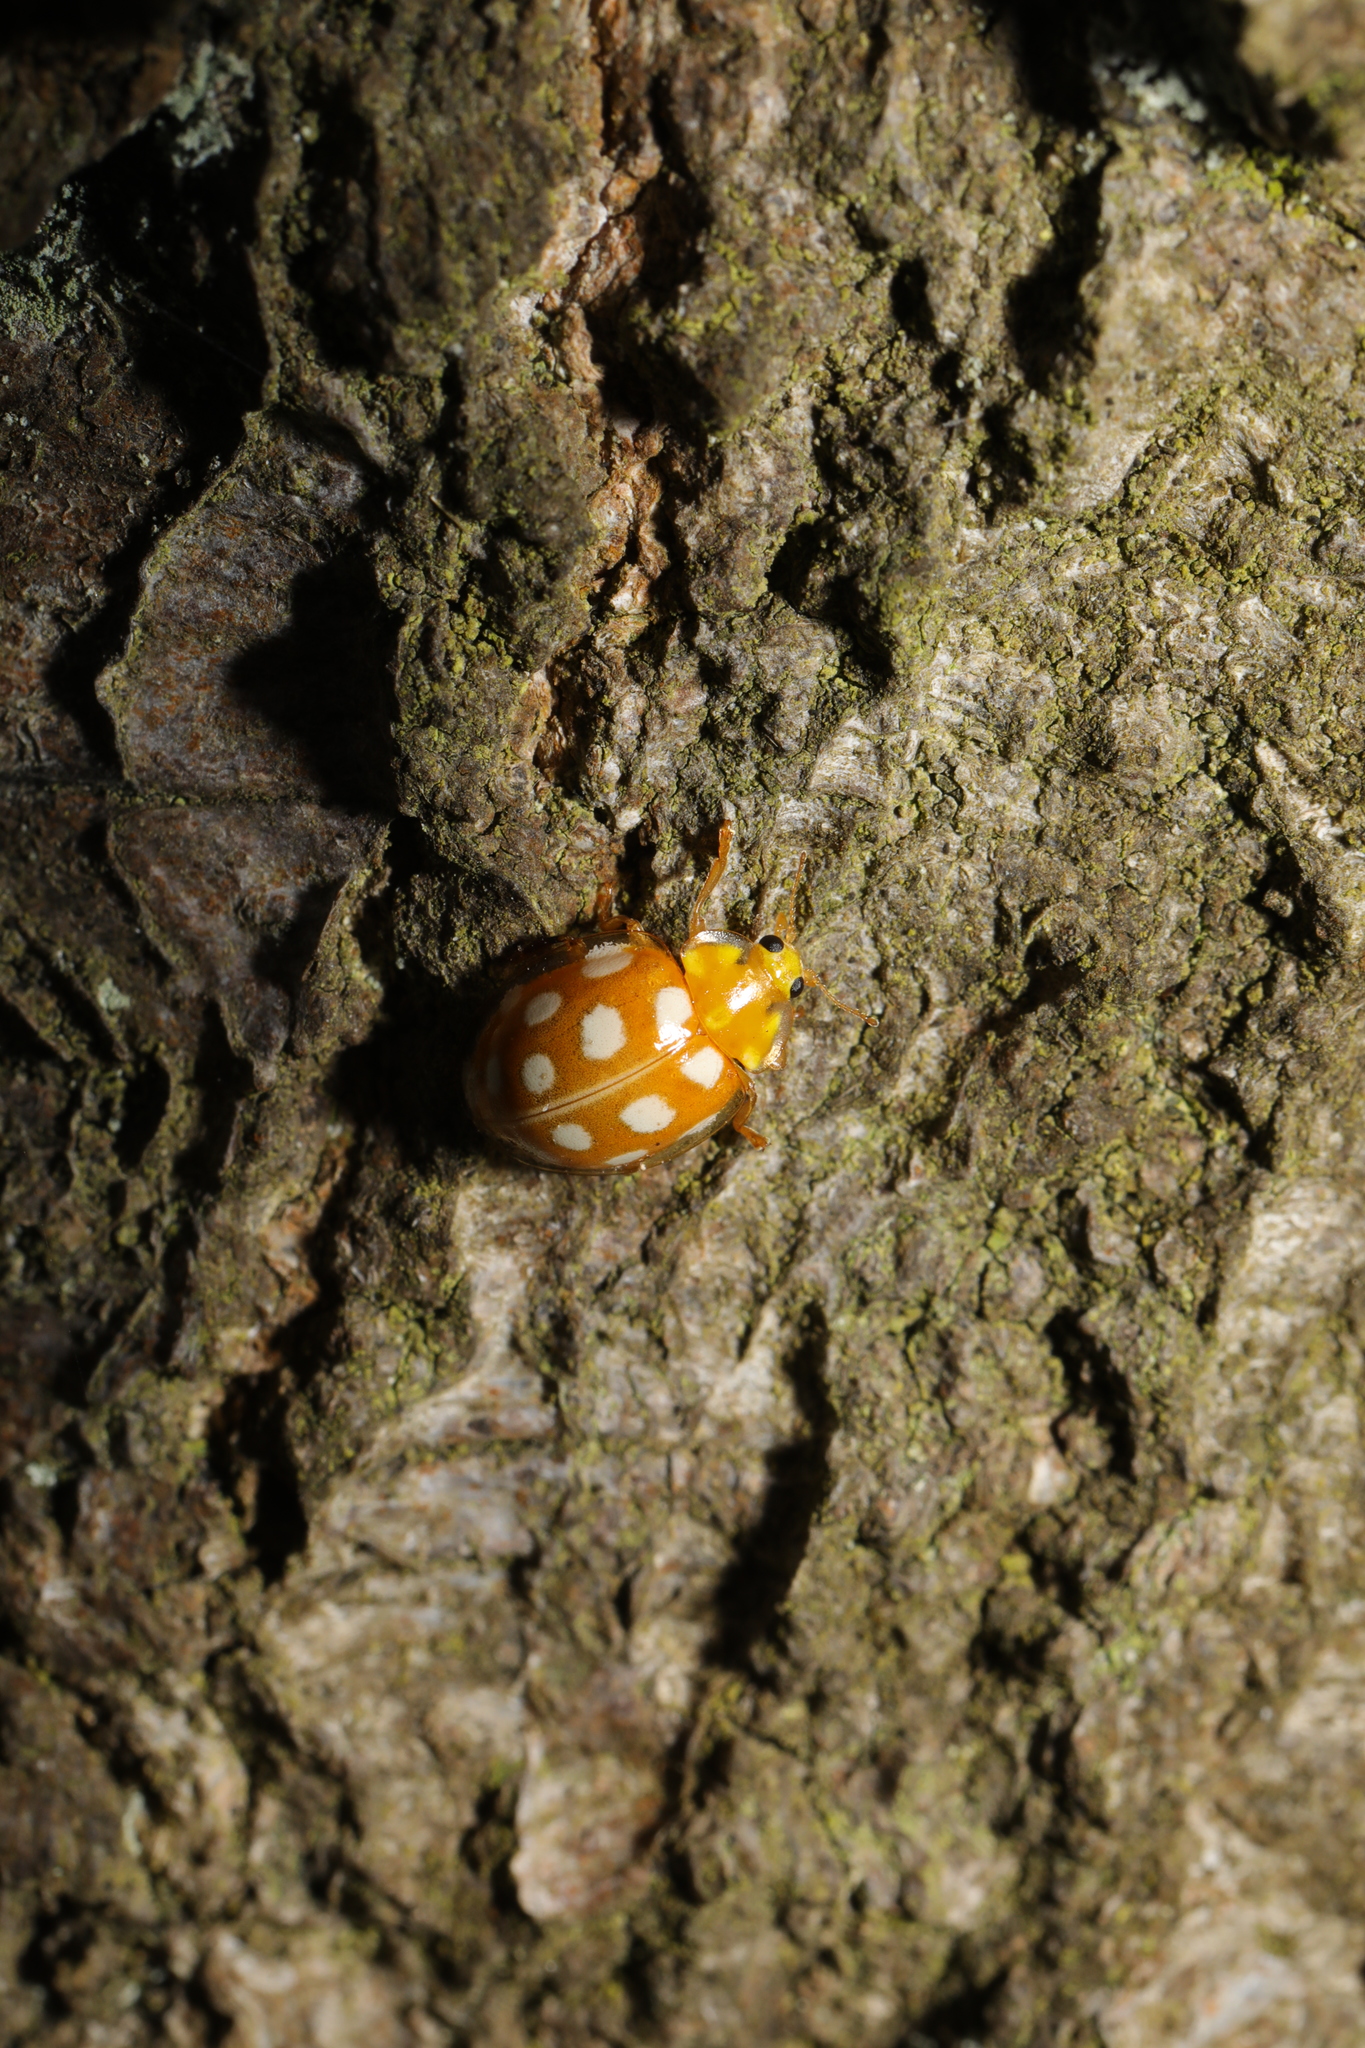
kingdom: Animalia
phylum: Arthropoda
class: Insecta
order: Coleoptera
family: Coccinellidae
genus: Halyzia
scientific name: Halyzia sedecimguttata
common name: Orange ladybird
